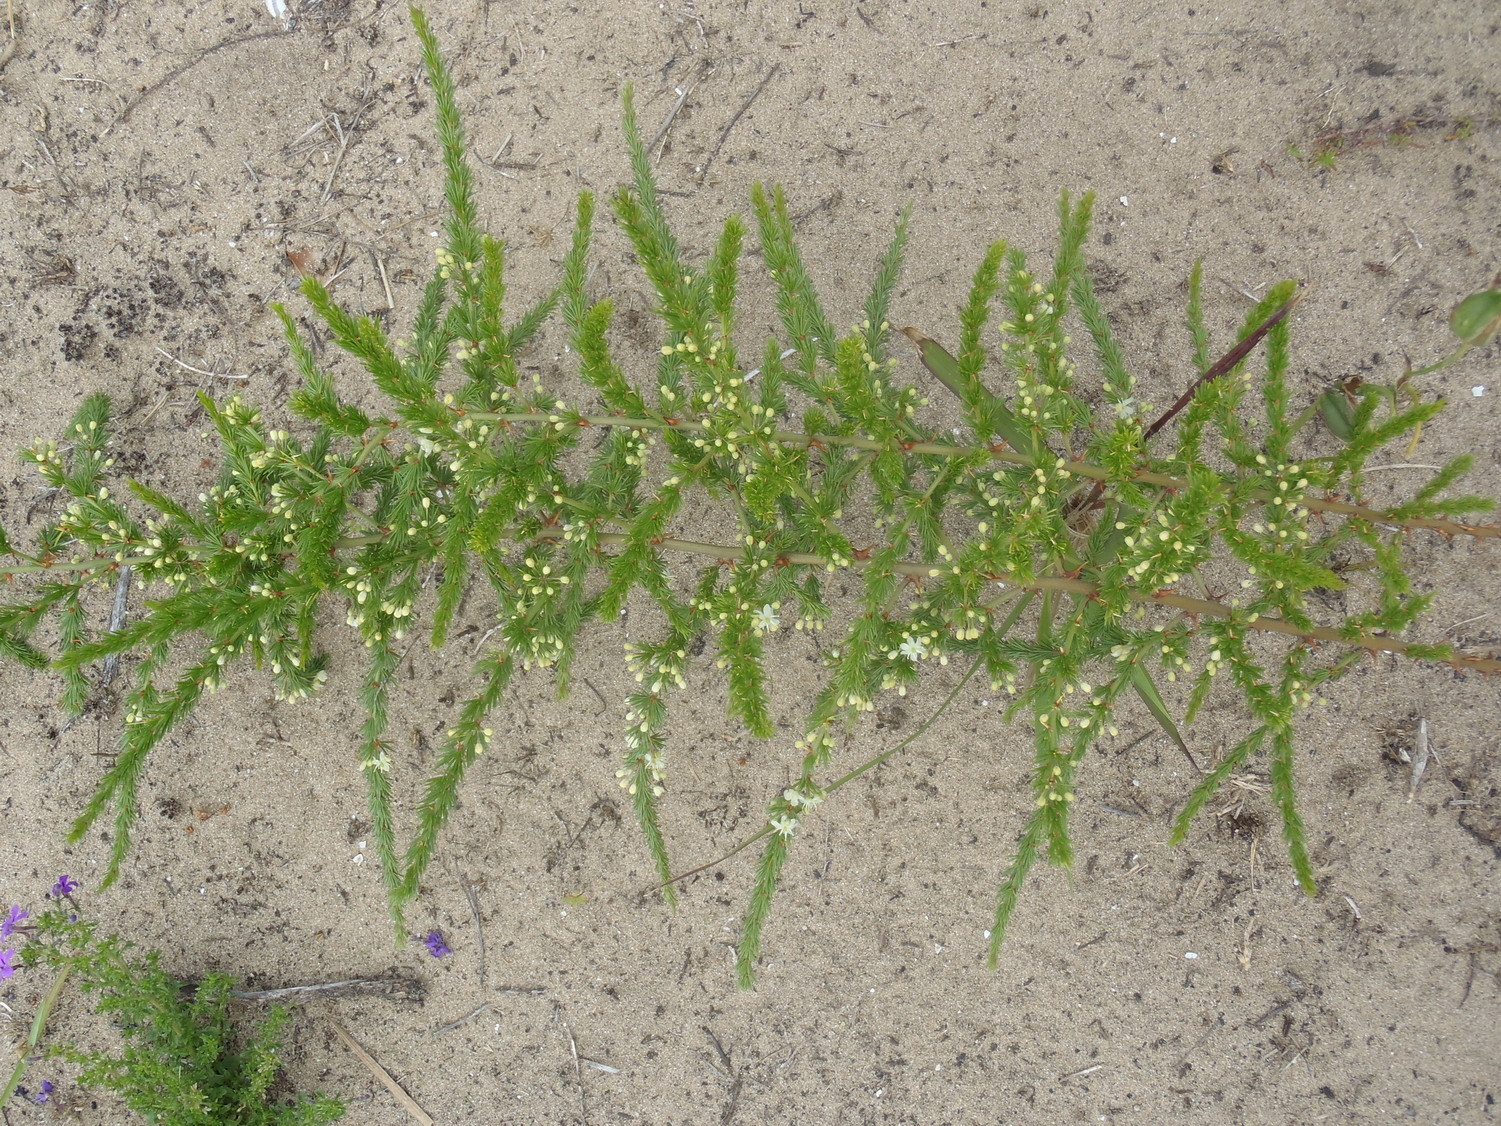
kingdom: Plantae
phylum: Tracheophyta
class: Liliopsida
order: Asparagales
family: Asparagaceae
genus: Asparagus
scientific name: Asparagus africanus
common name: Asparagus-fern
